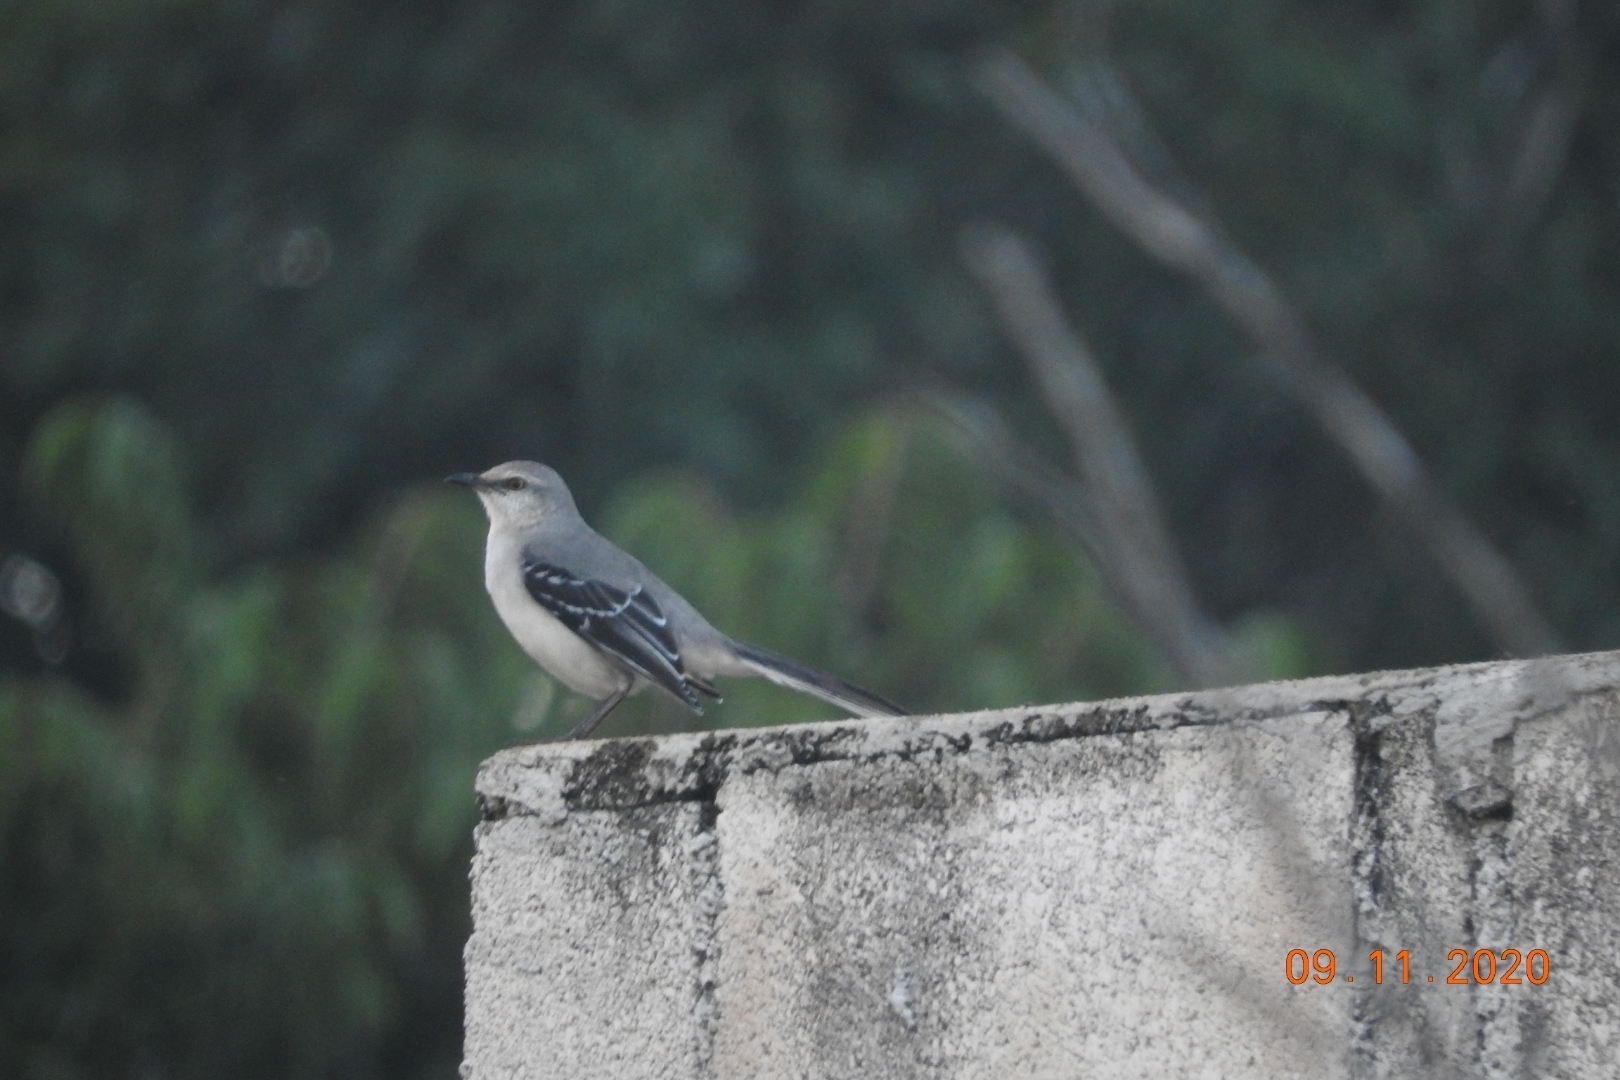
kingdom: Animalia
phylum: Chordata
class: Aves
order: Passeriformes
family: Mimidae
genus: Mimus
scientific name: Mimus gilvus
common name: Tropical mockingbird
